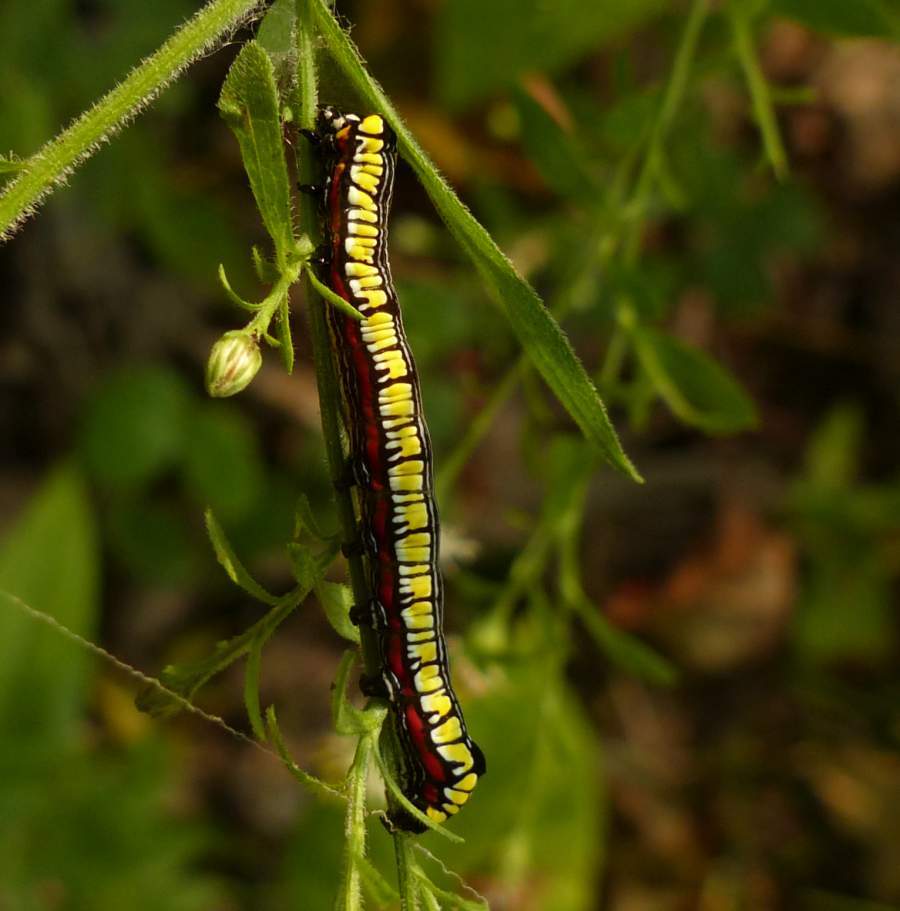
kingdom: Animalia
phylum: Arthropoda
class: Insecta
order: Lepidoptera
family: Noctuidae
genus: Cucullia
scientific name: Cucullia convexipennis
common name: Brown-hooded owlet
